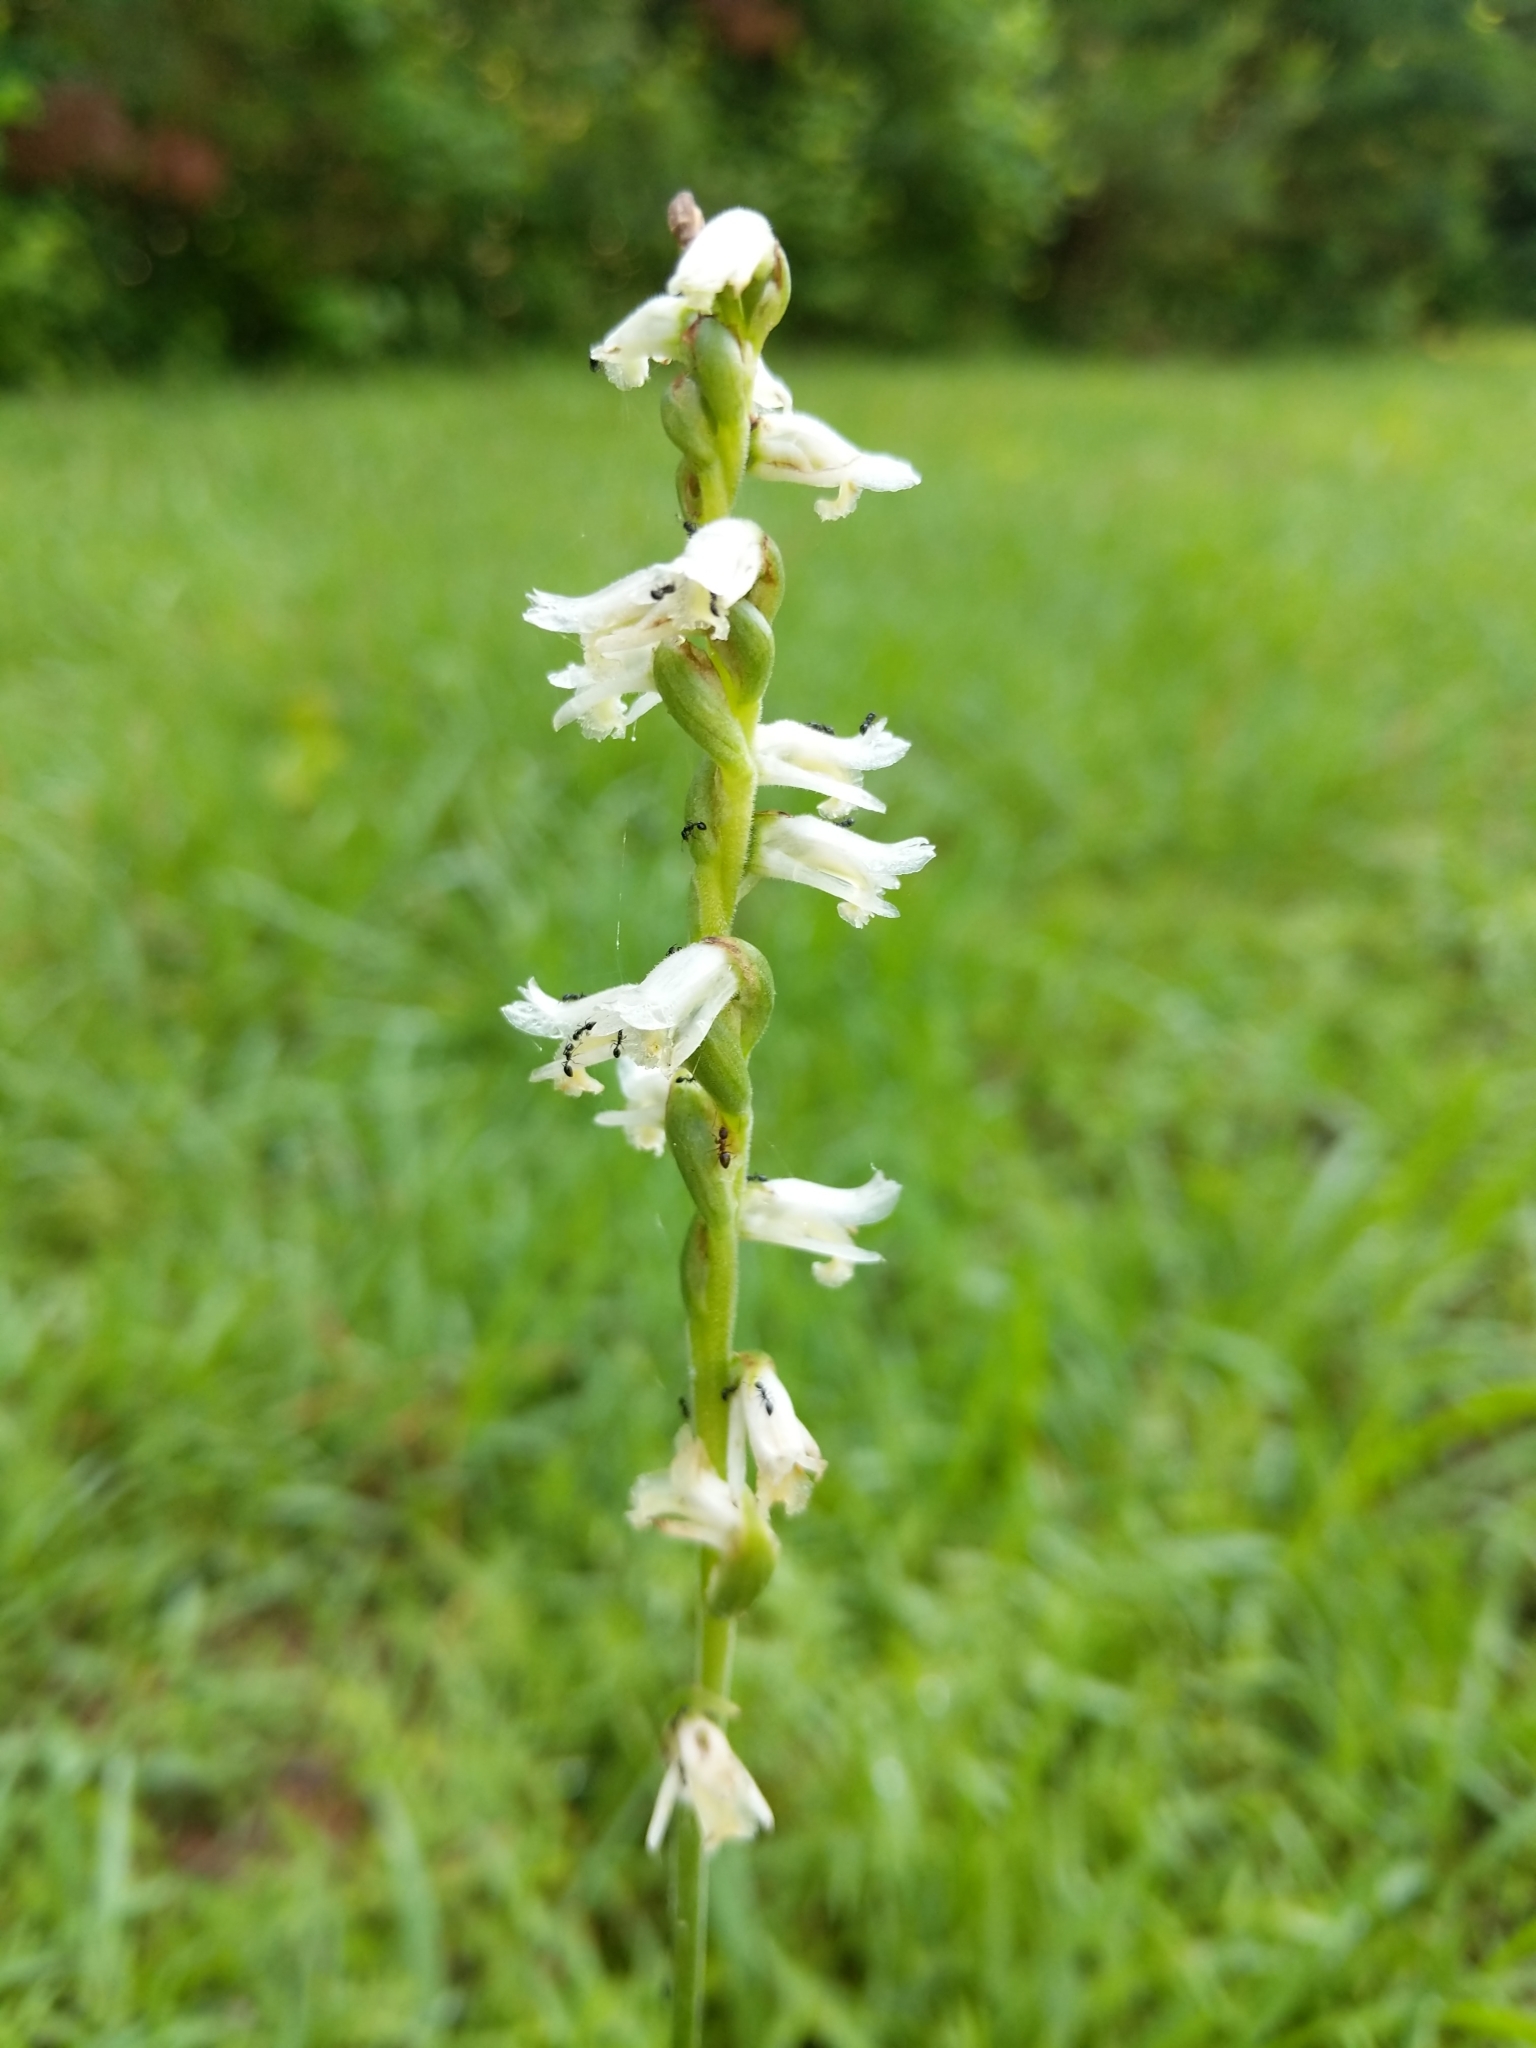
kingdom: Plantae
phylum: Tracheophyta
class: Liliopsida
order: Asparagales
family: Orchidaceae
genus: Spiranthes
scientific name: Spiranthes vernalis
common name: Spring ladies'-tresses
